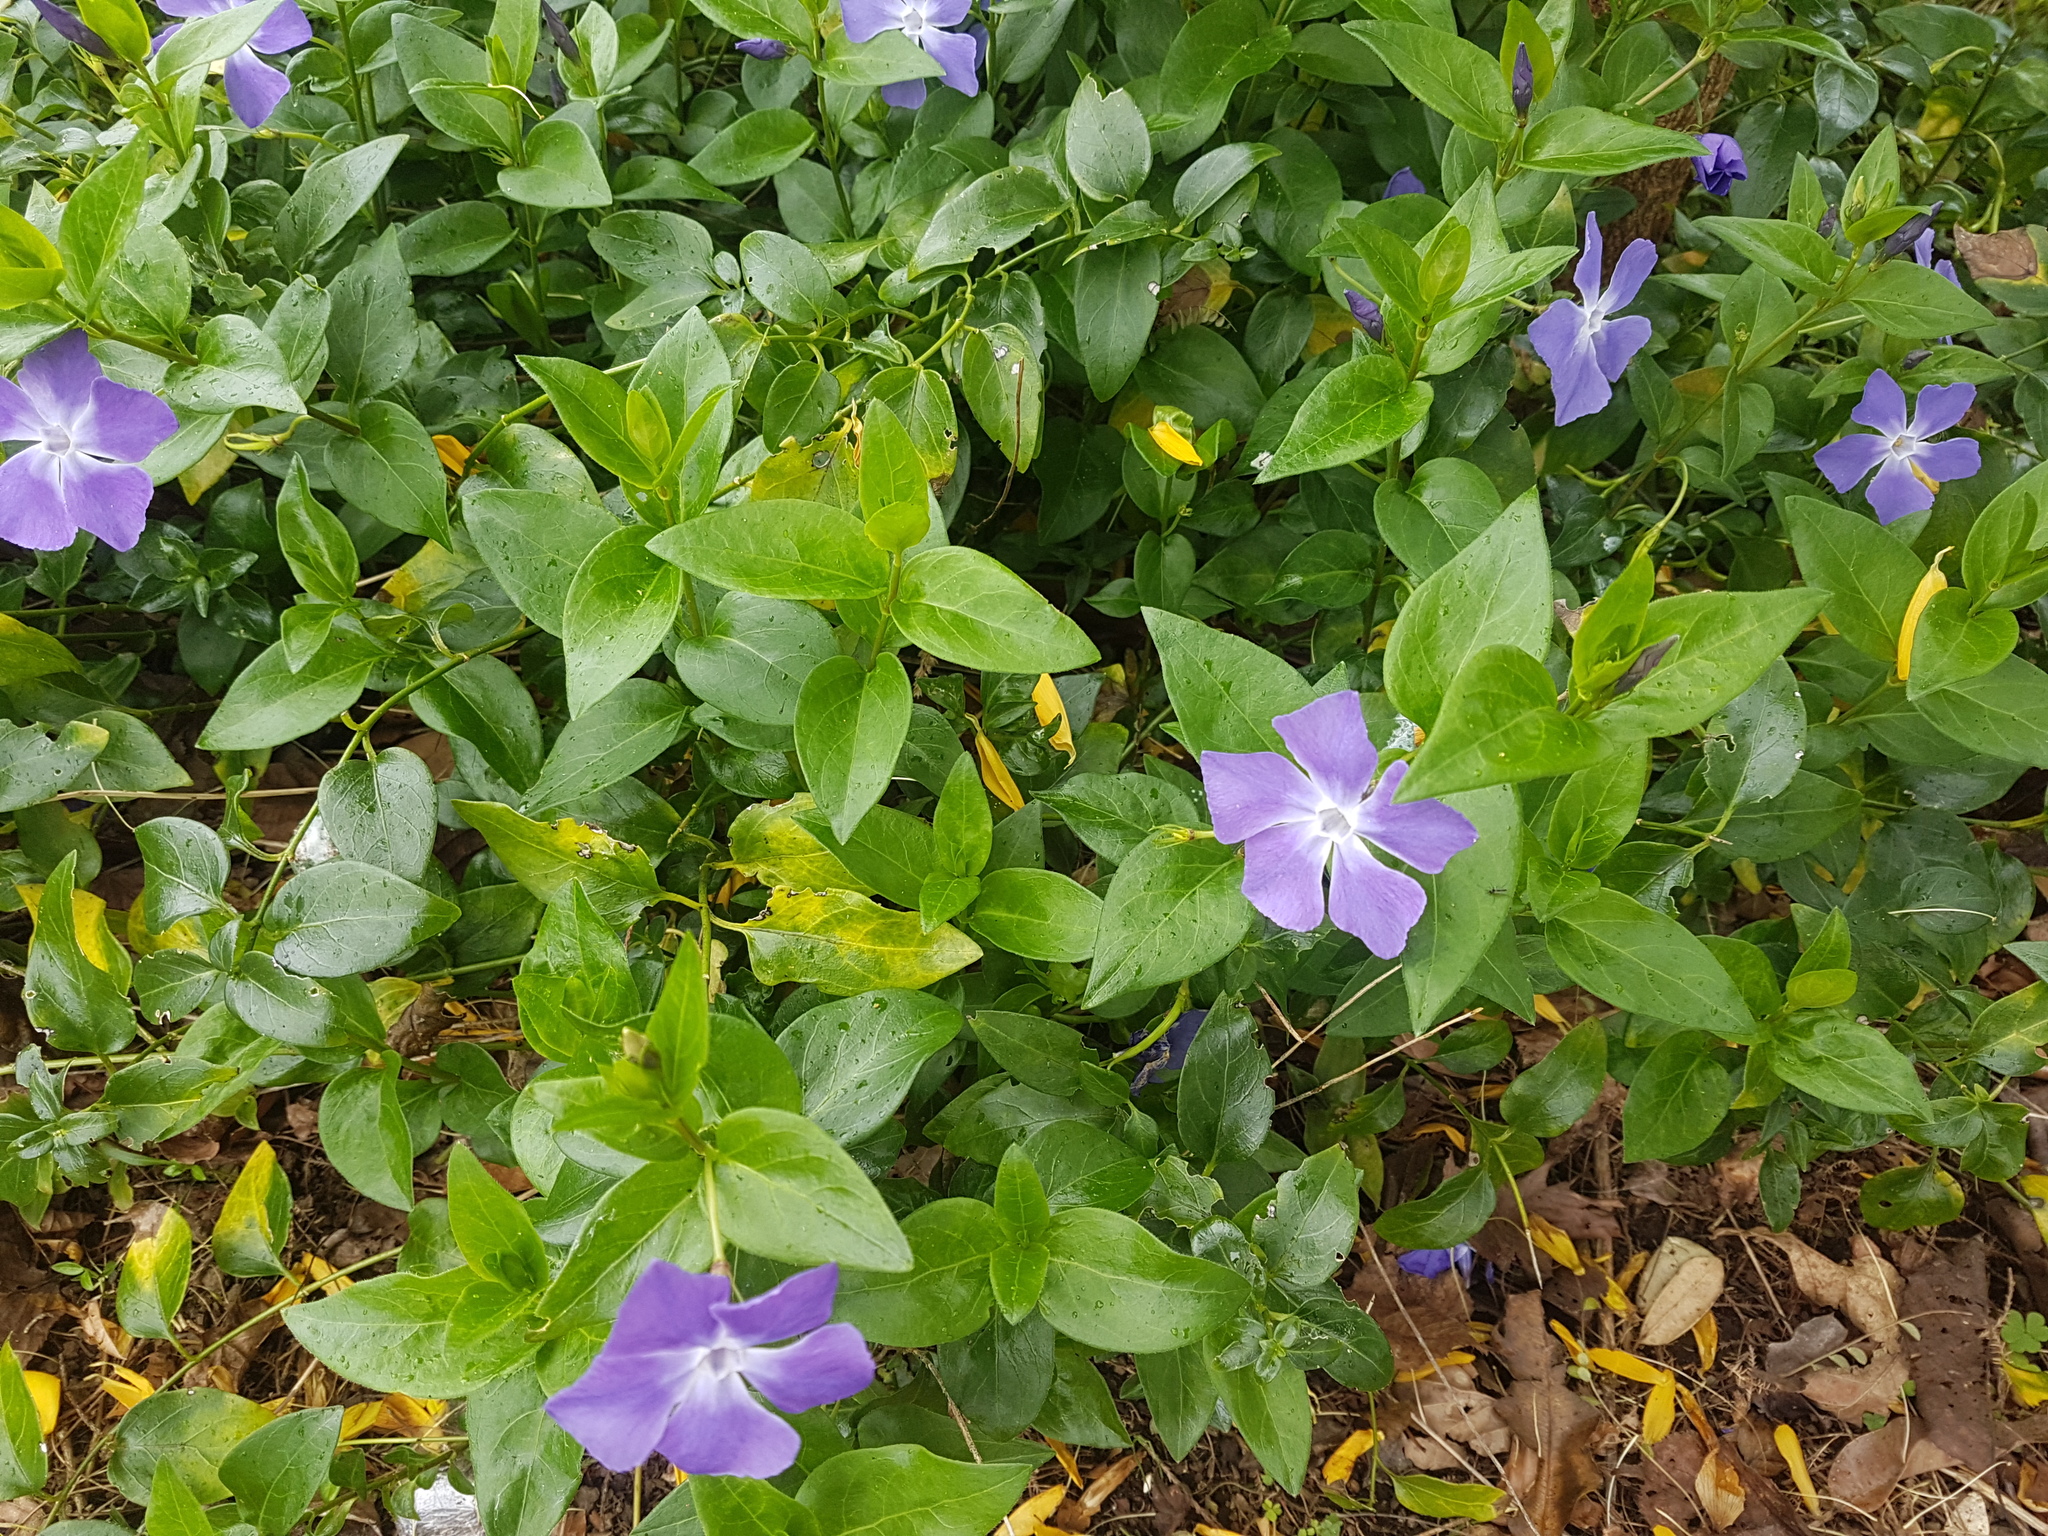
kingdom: Plantae
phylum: Tracheophyta
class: Magnoliopsida
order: Gentianales
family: Apocynaceae
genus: Vinca
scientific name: Vinca major
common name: Greater periwinkle
